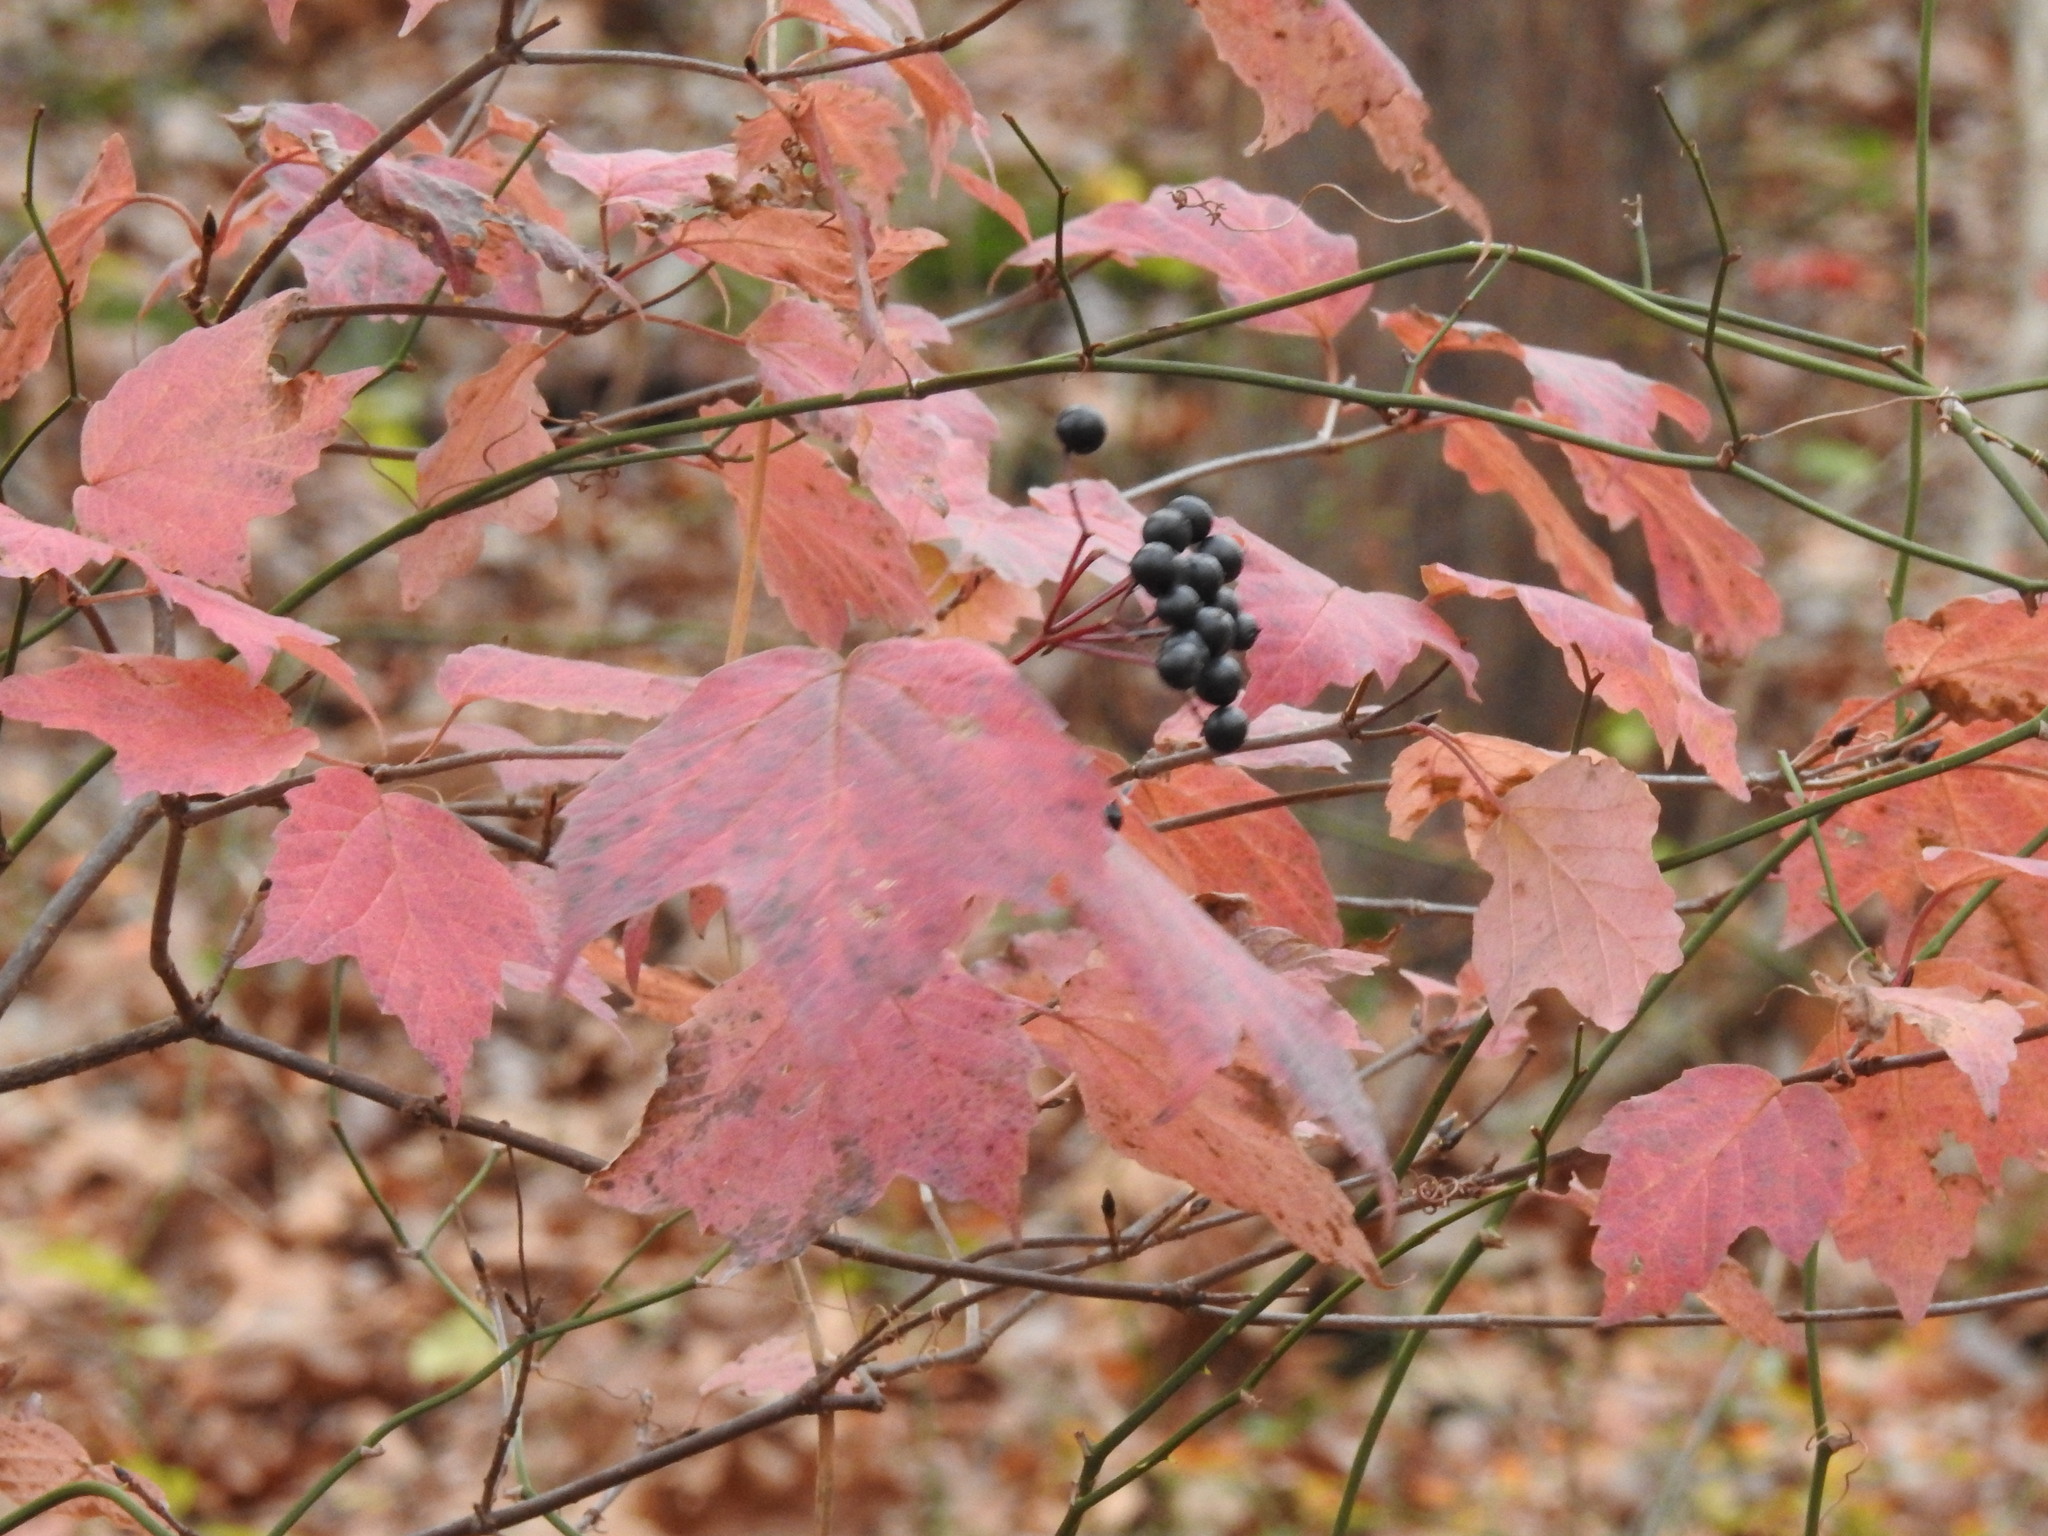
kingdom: Plantae
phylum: Tracheophyta
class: Magnoliopsida
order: Dipsacales
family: Viburnaceae
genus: Viburnum
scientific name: Viburnum acerifolium
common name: Dockmackie
